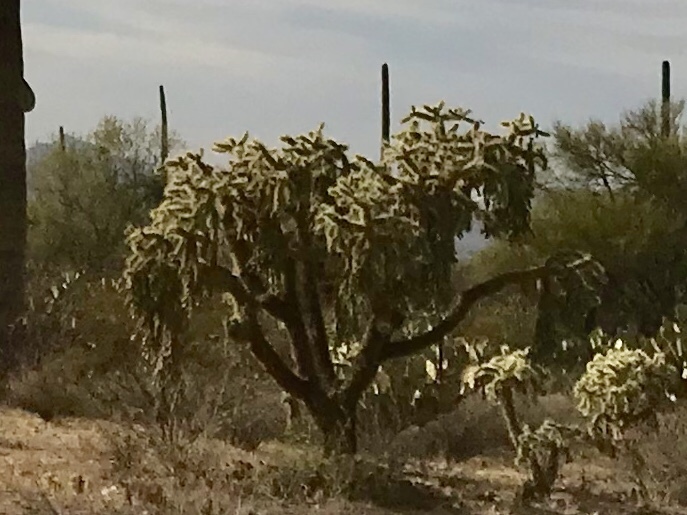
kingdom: Plantae
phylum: Tracheophyta
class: Magnoliopsida
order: Caryophyllales
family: Cactaceae
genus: Cylindropuntia
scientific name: Cylindropuntia fulgida
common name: Jumping cholla
